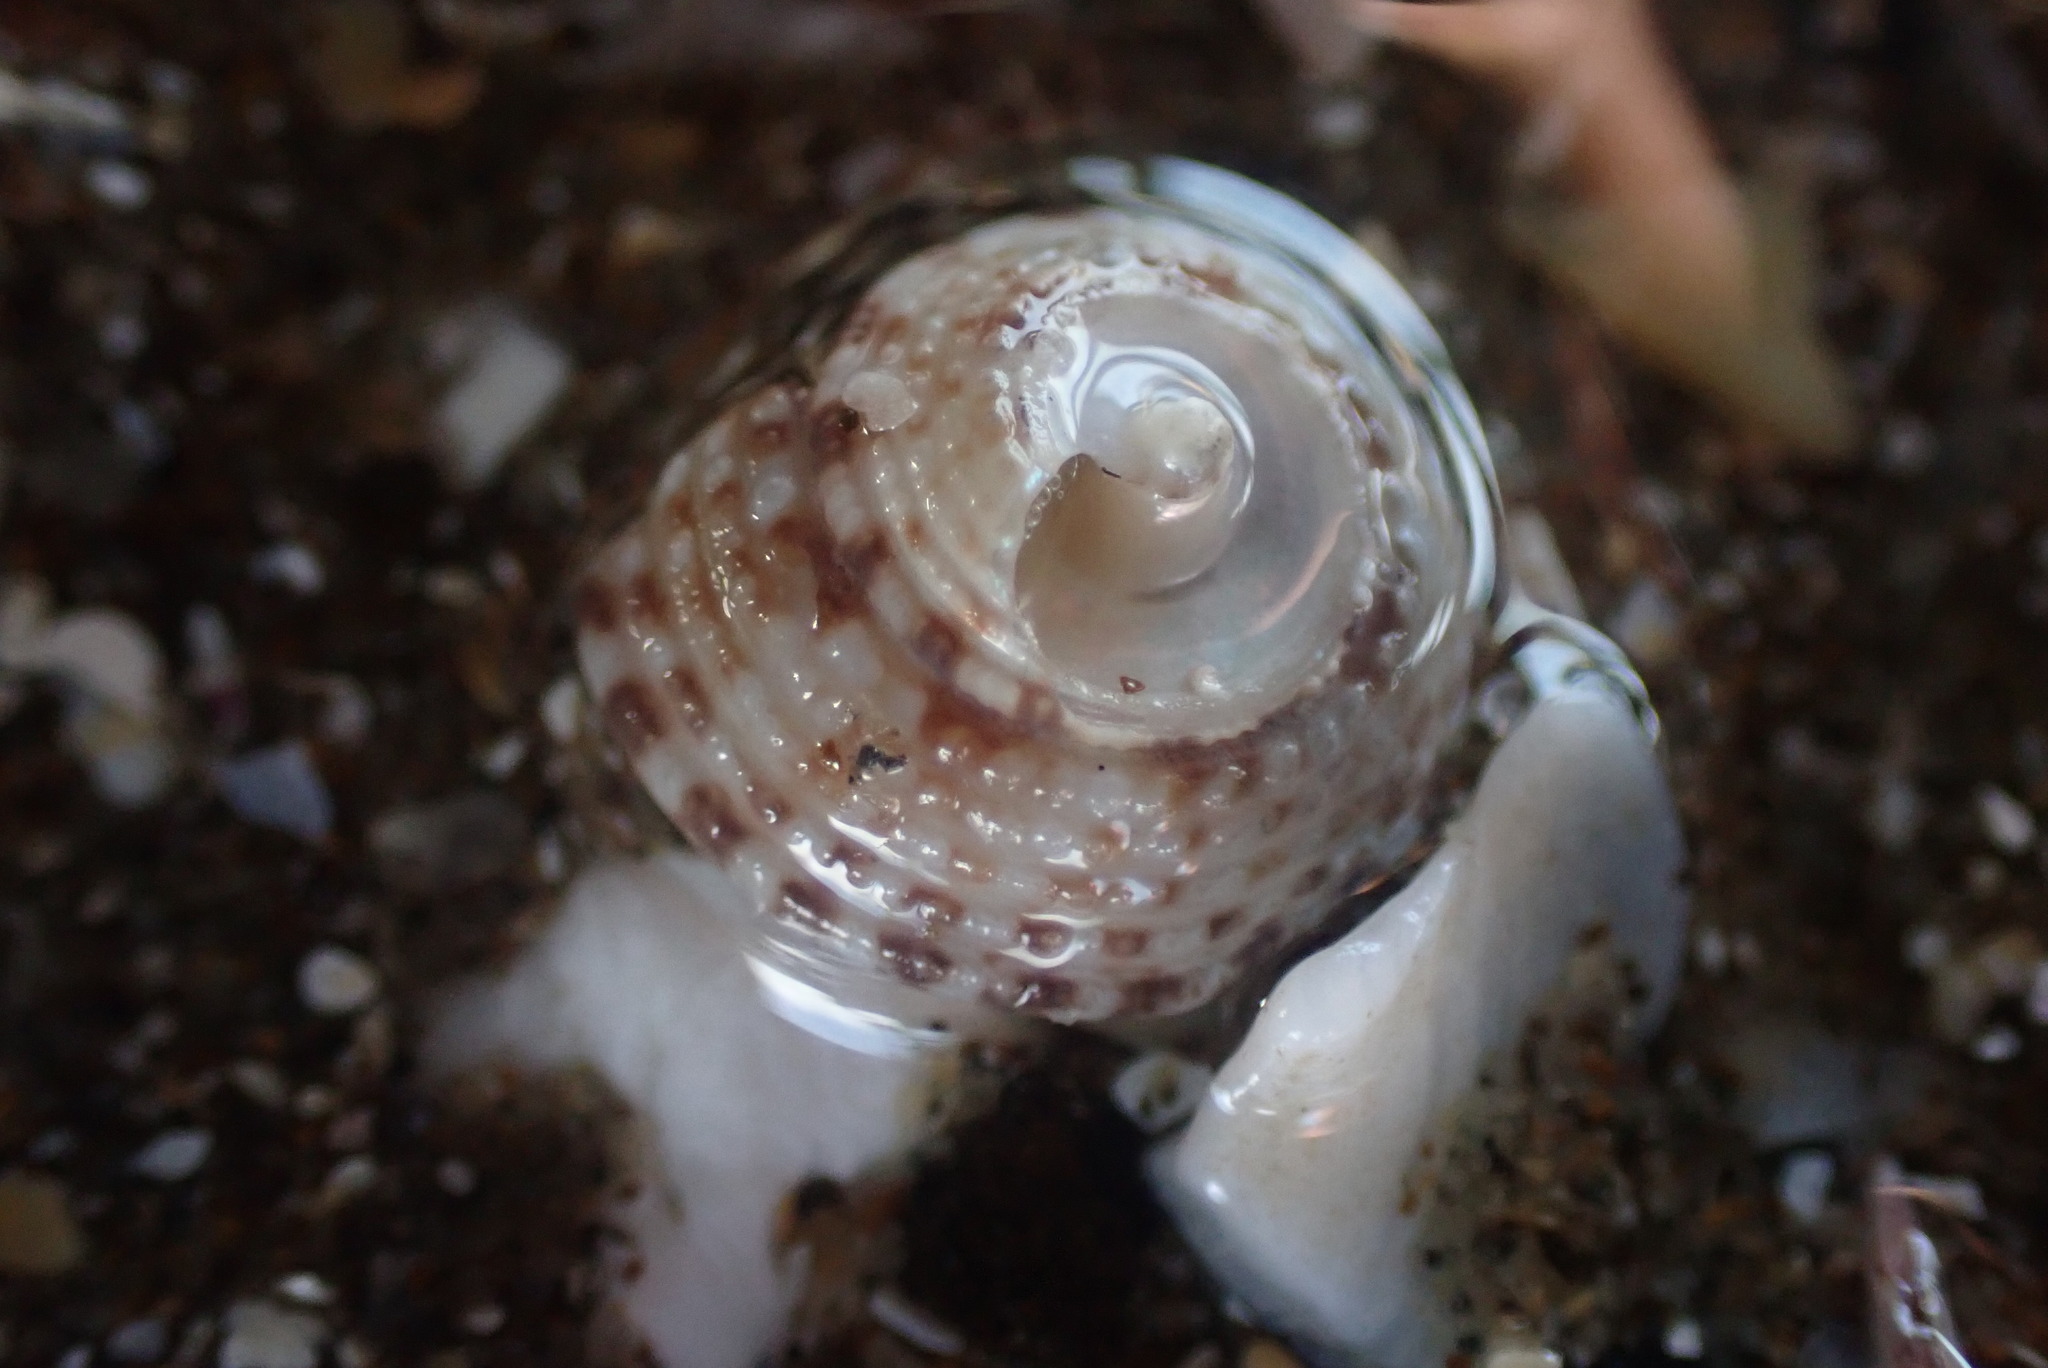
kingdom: Animalia
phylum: Mollusca
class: Gastropoda
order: Trochida
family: Trochidae
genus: Coelotrochus
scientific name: Coelotrochus tiaratus
